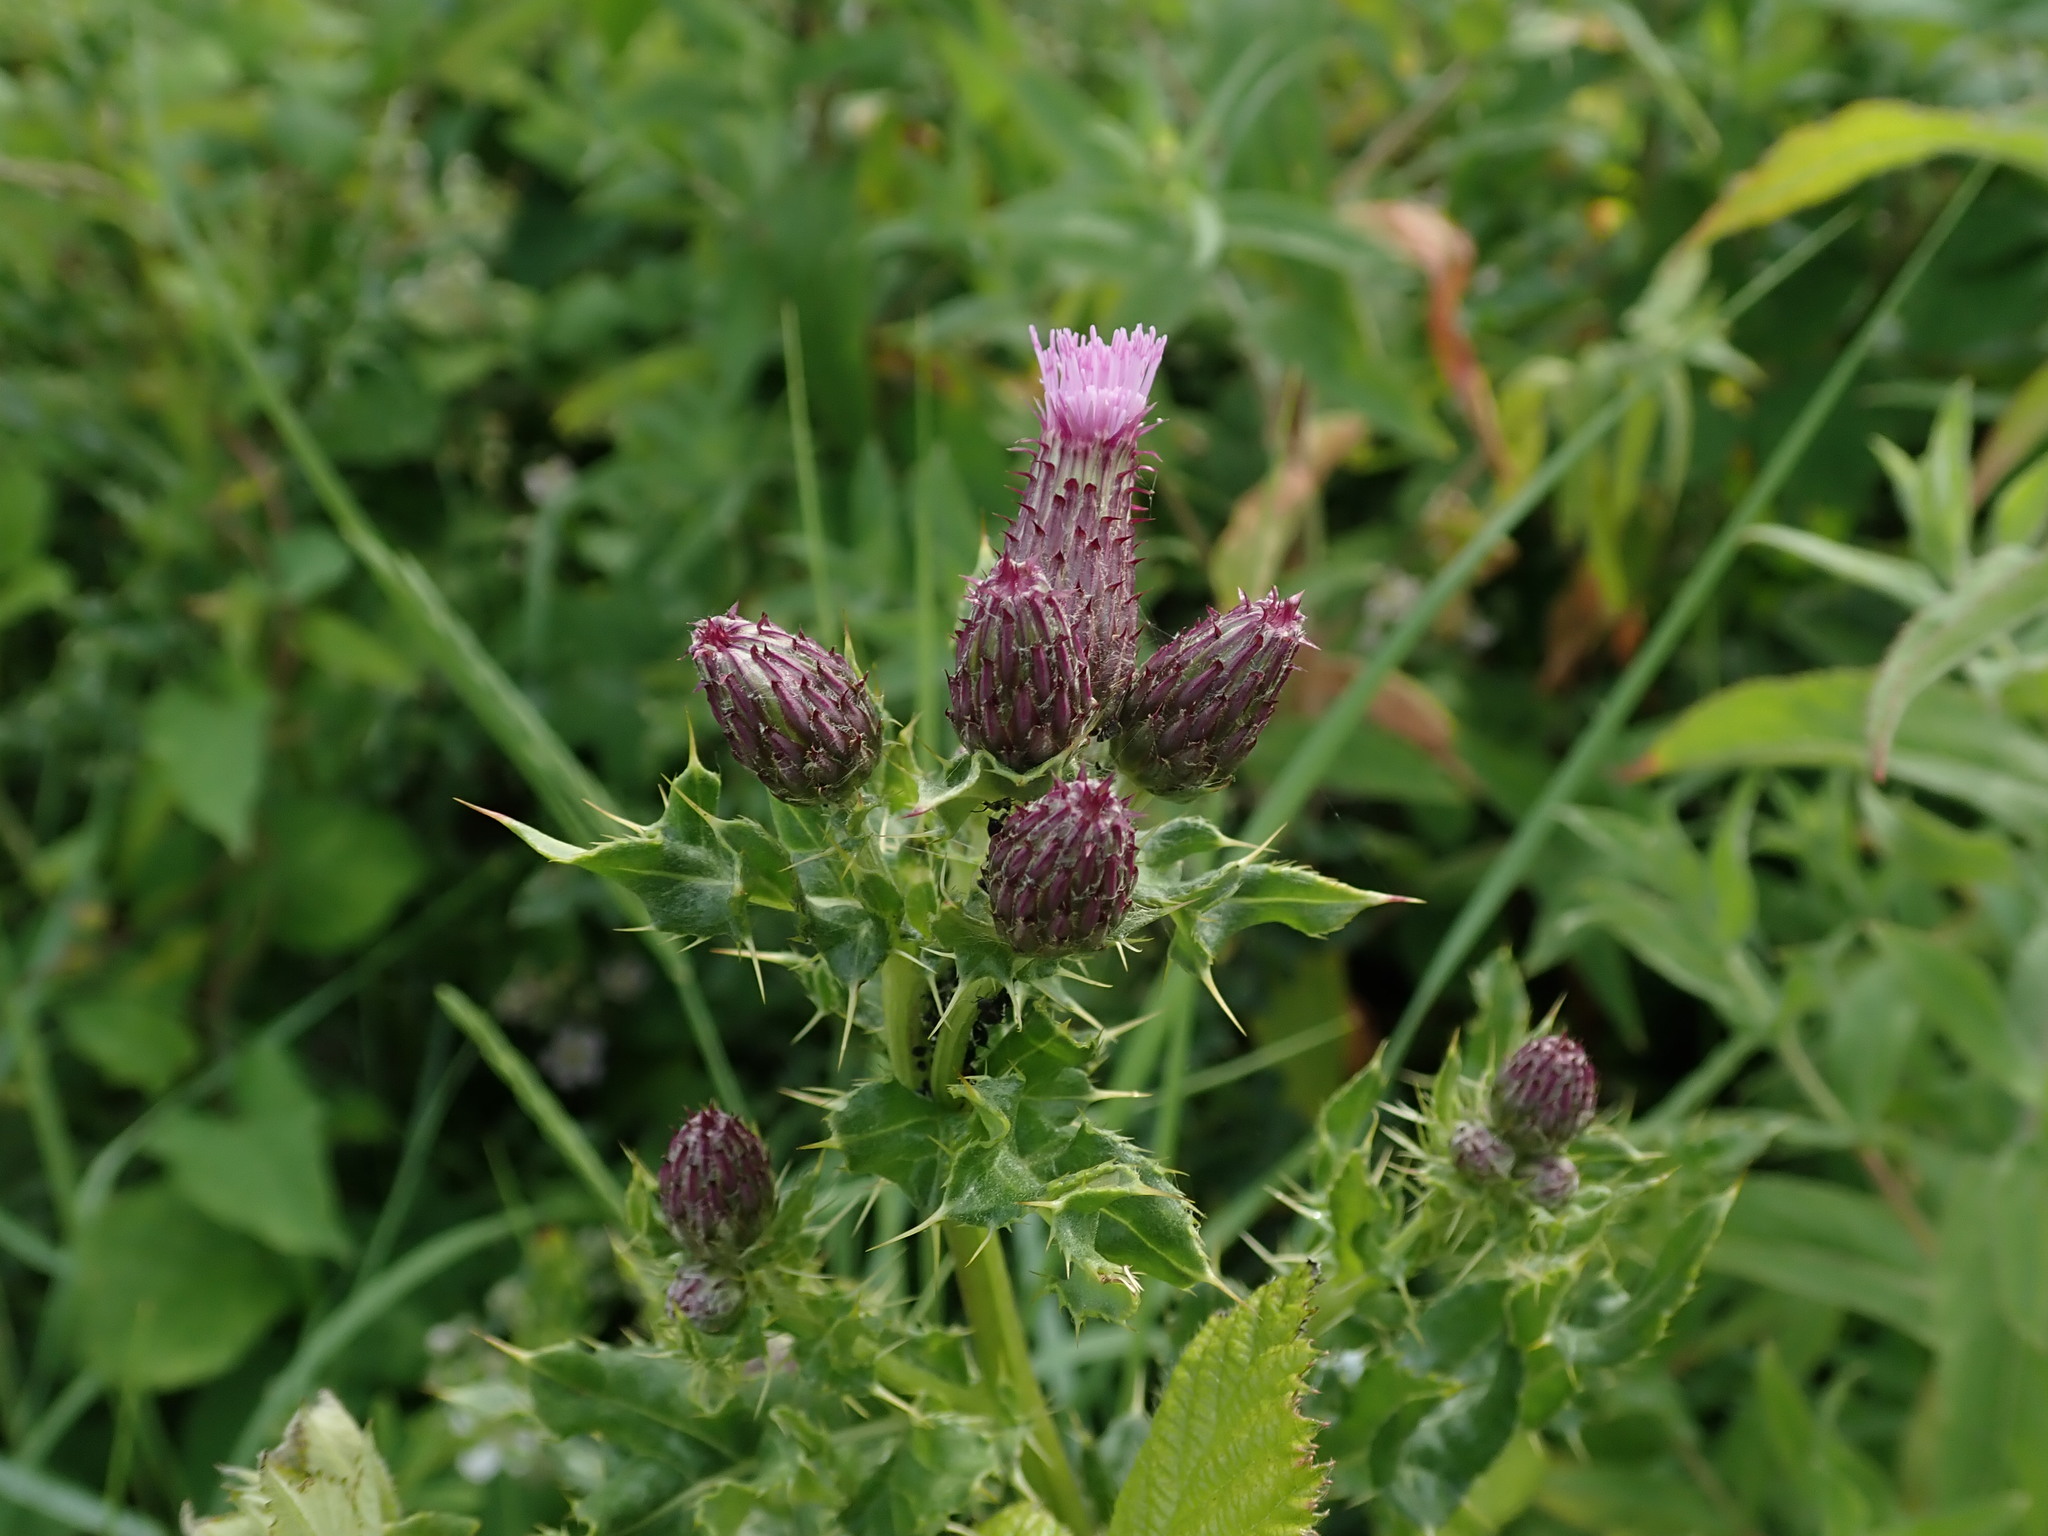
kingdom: Plantae
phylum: Tracheophyta
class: Magnoliopsida
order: Asterales
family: Asteraceae
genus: Cirsium
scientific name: Cirsium arvense
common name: Creeping thistle
